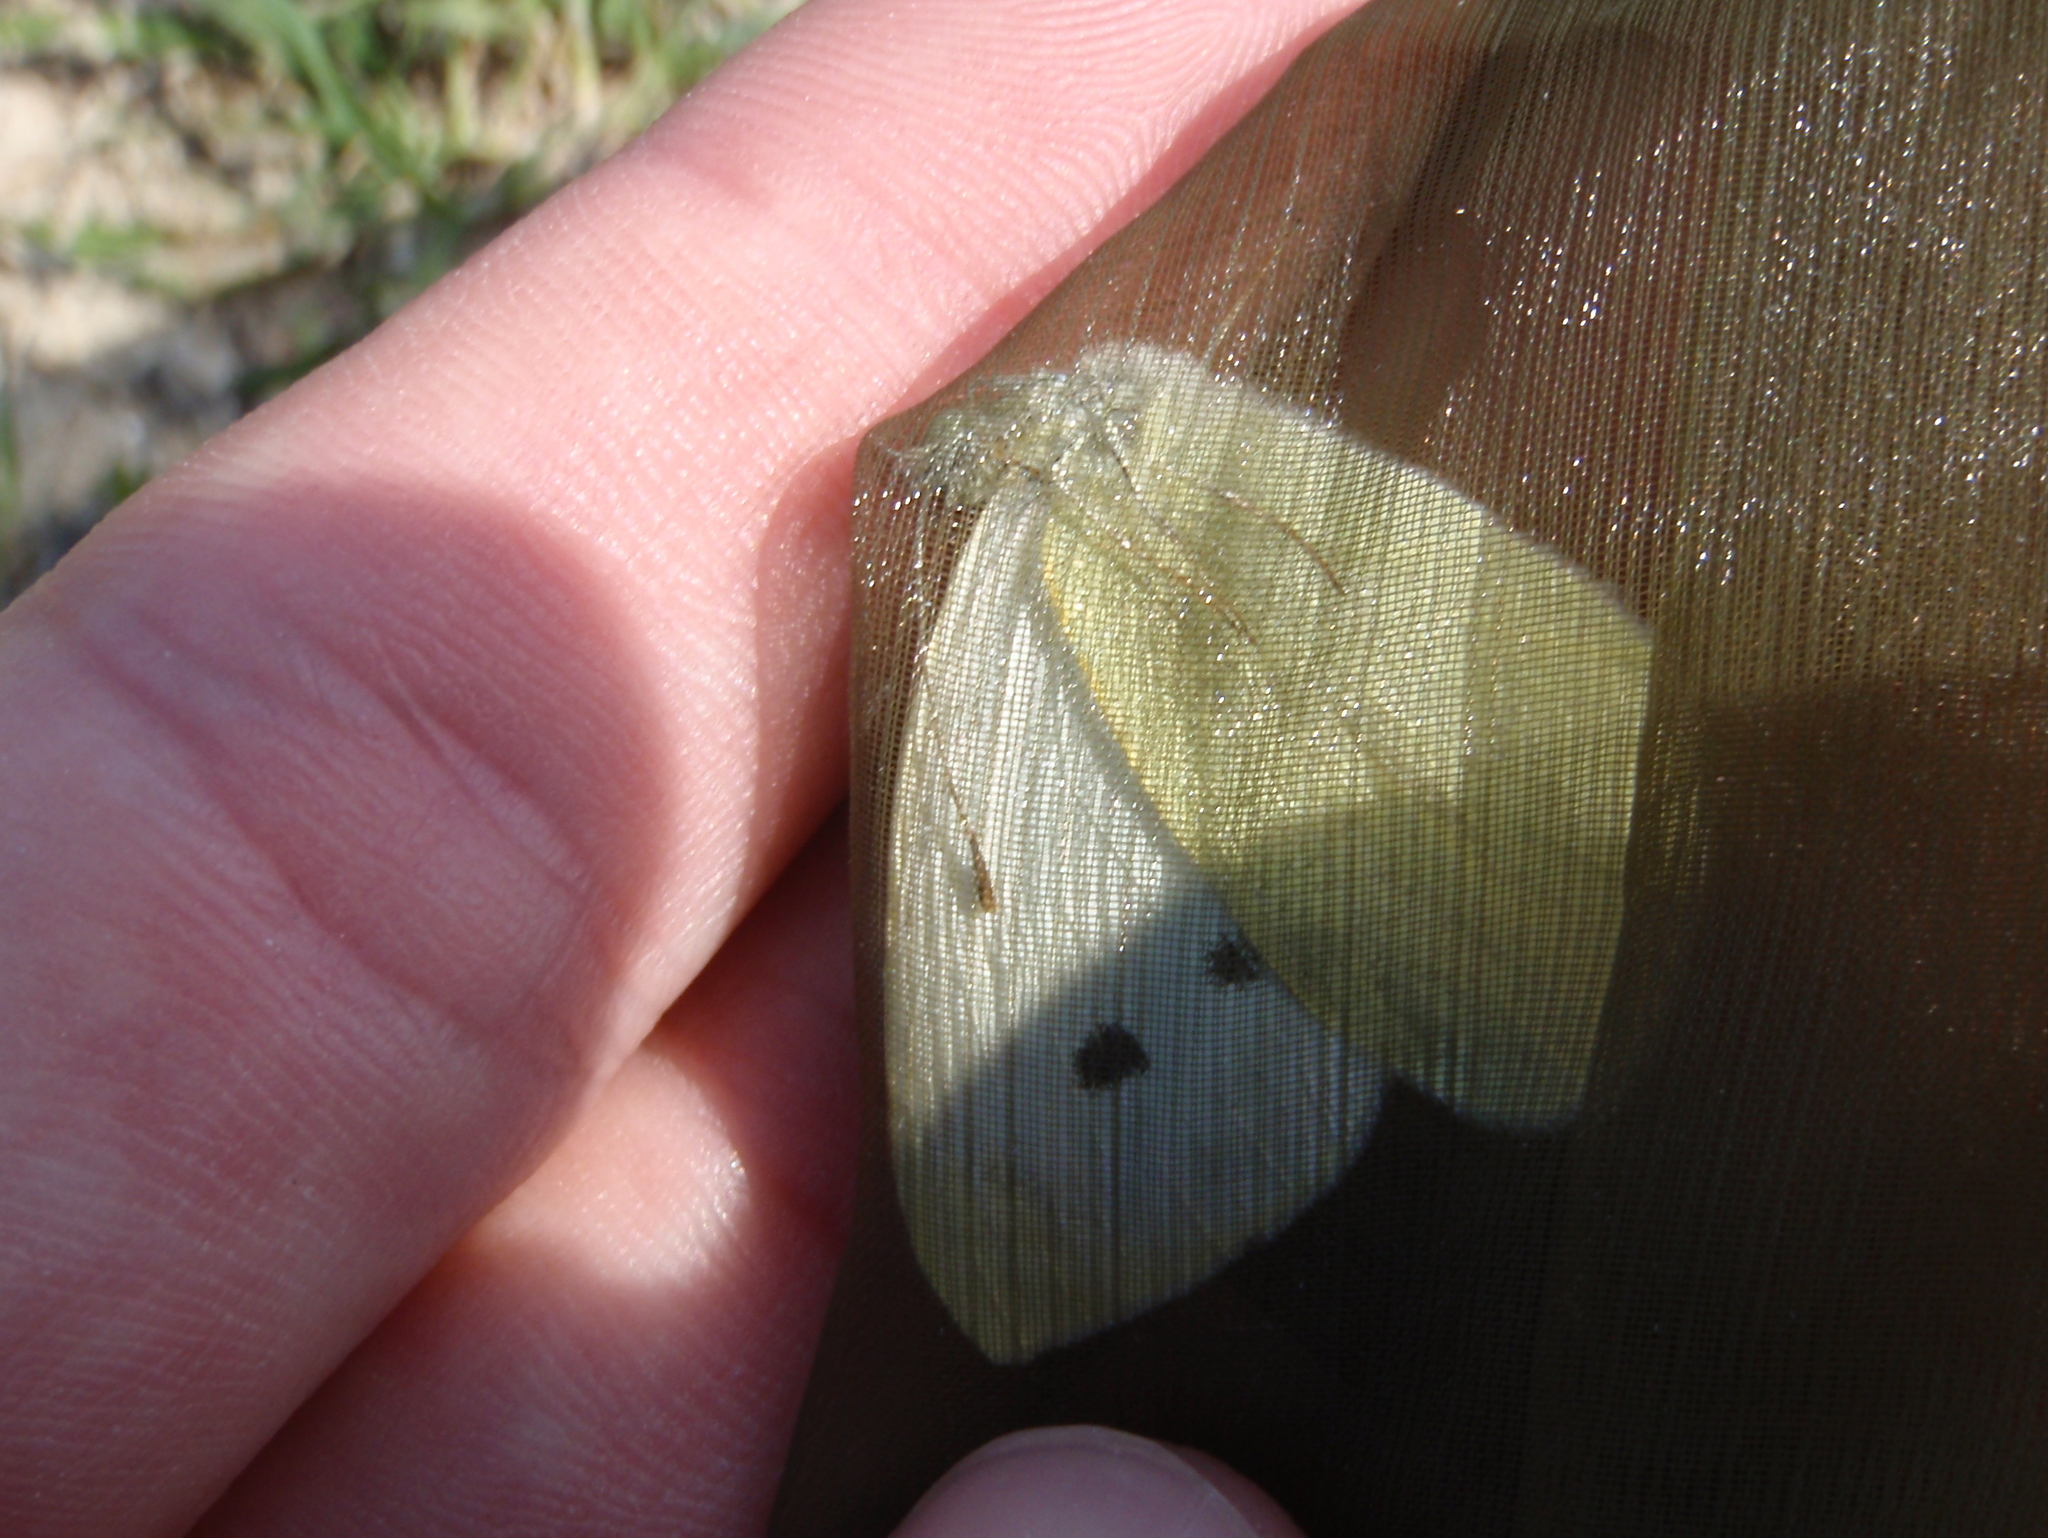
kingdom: Animalia
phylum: Arthropoda
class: Insecta
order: Lepidoptera
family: Pieridae
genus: Pieris
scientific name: Pieris rapae
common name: Small white
